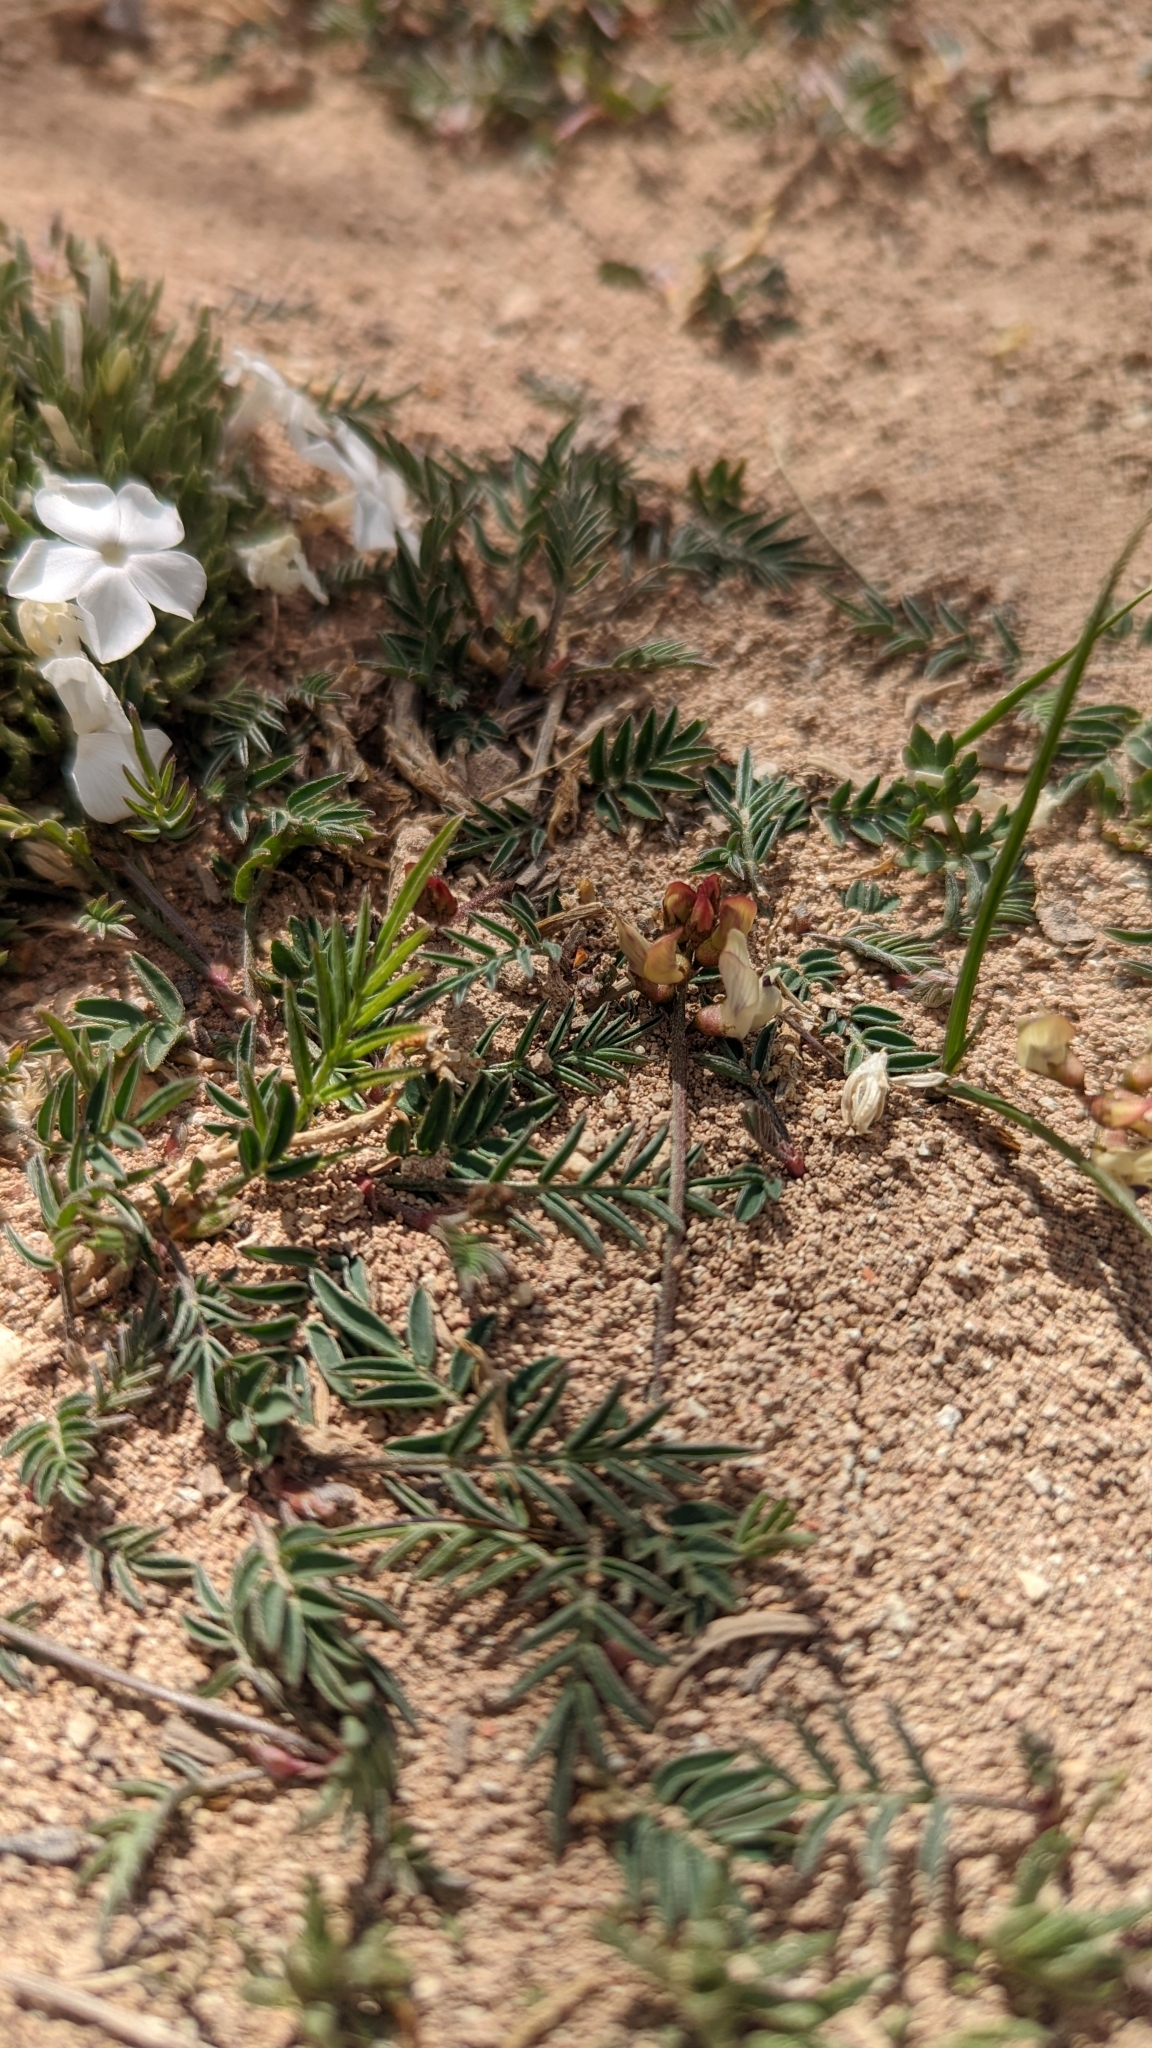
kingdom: Plantae
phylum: Tracheophyta
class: Magnoliopsida
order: Fabales
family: Fabaceae
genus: Astragalus
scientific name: Astragalus humistratus
